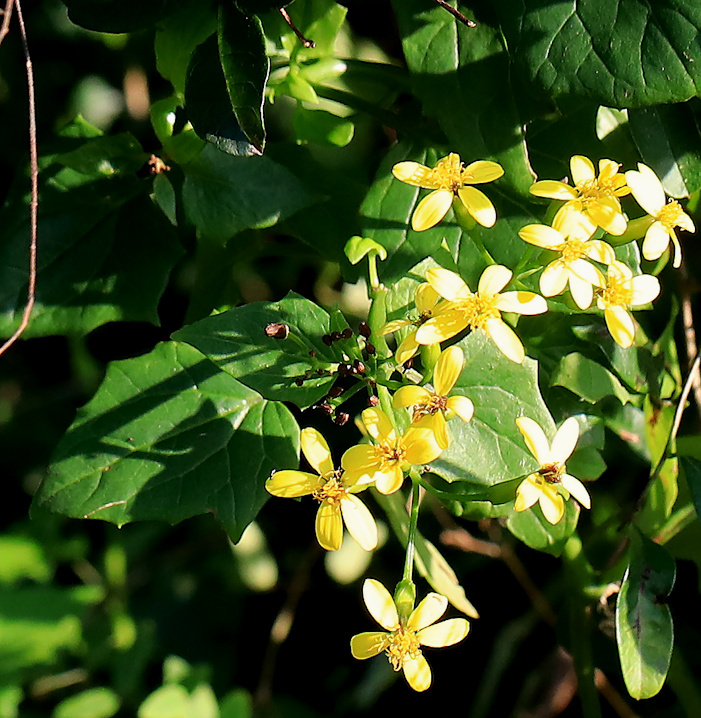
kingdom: Plantae
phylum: Tracheophyta
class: Magnoliopsida
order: Asterales
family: Asteraceae
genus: Senecio
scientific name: Senecio tamoides
